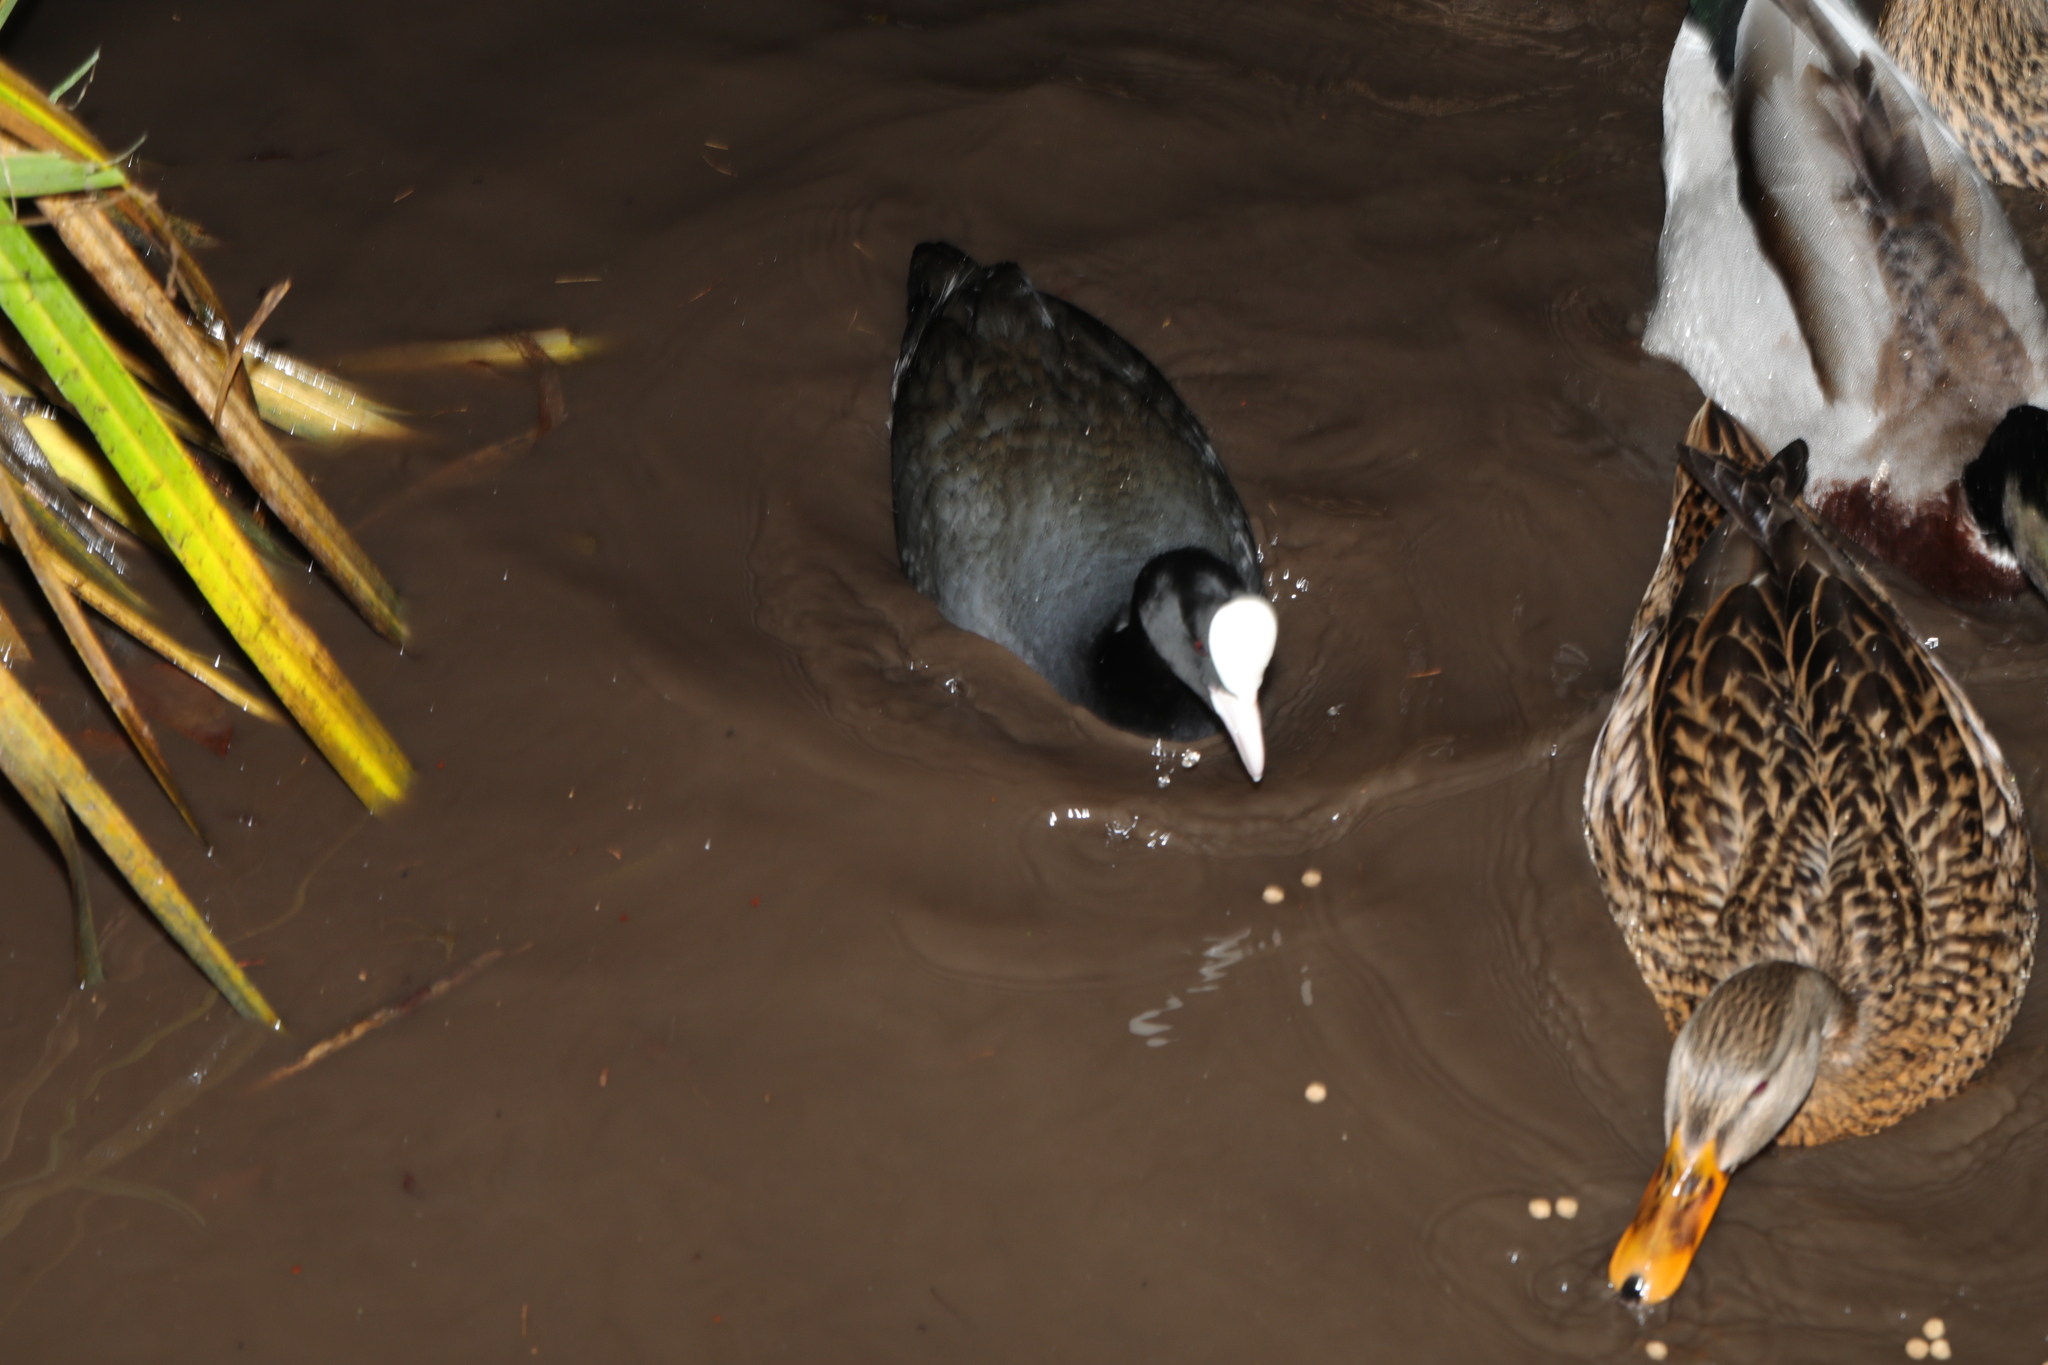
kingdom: Animalia
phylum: Chordata
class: Aves
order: Gruiformes
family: Rallidae
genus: Fulica
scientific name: Fulica atra
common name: Eurasian coot
